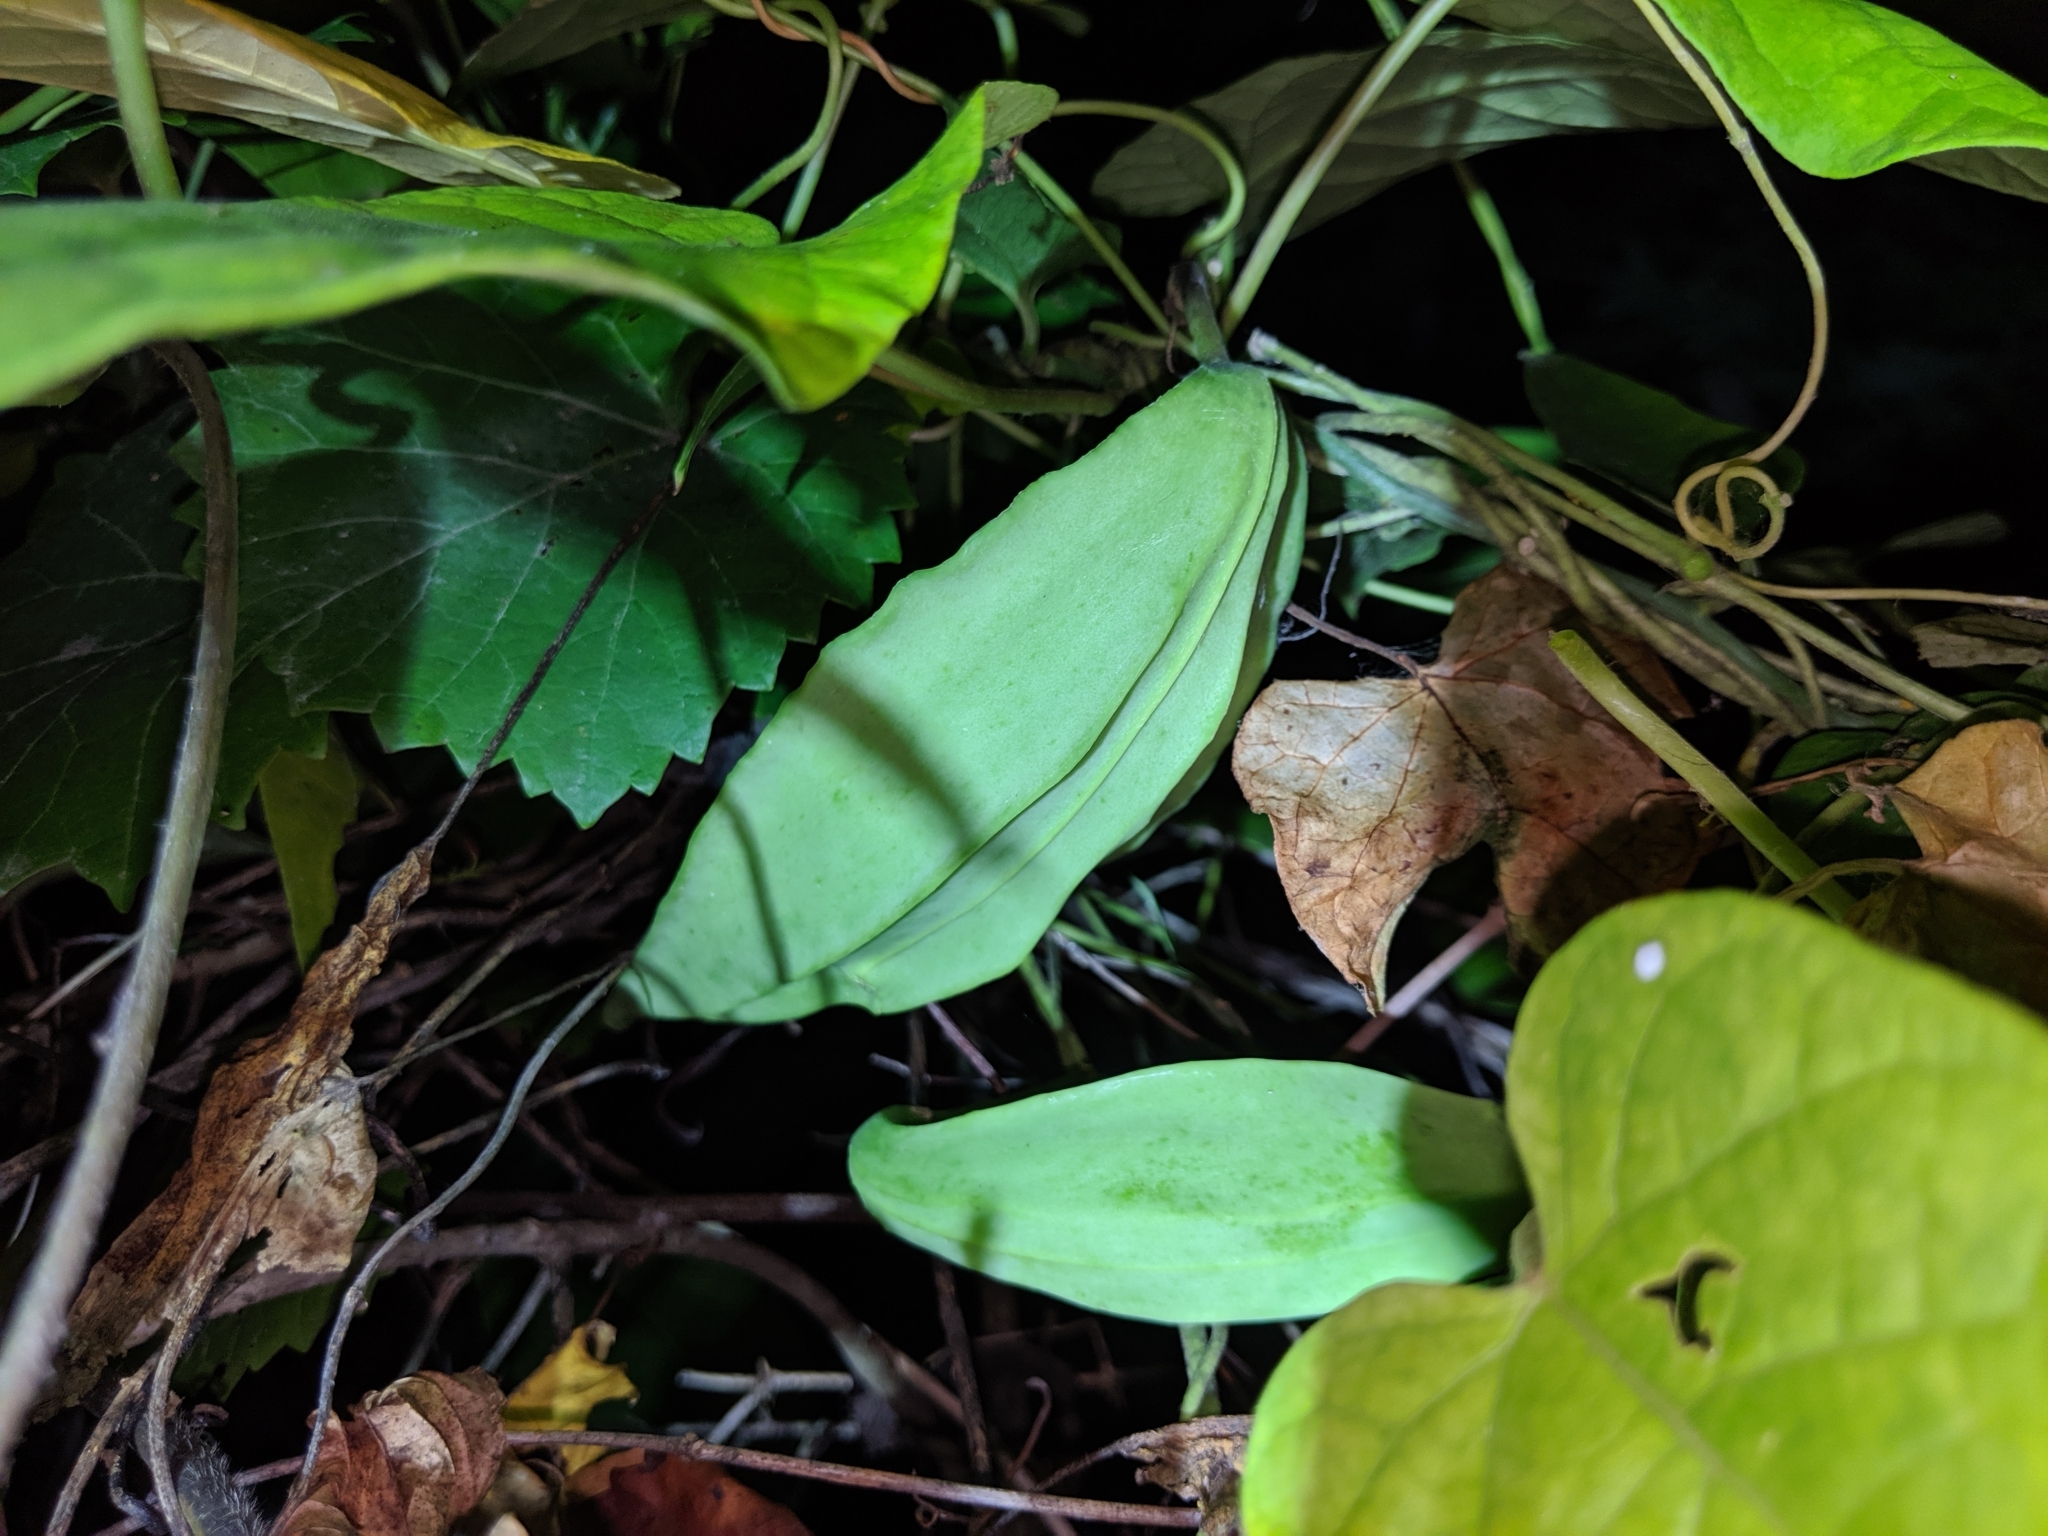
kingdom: Plantae
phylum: Tracheophyta
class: Magnoliopsida
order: Gentianales
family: Apocynaceae
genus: Gonolobus
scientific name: Gonolobus suberosus
